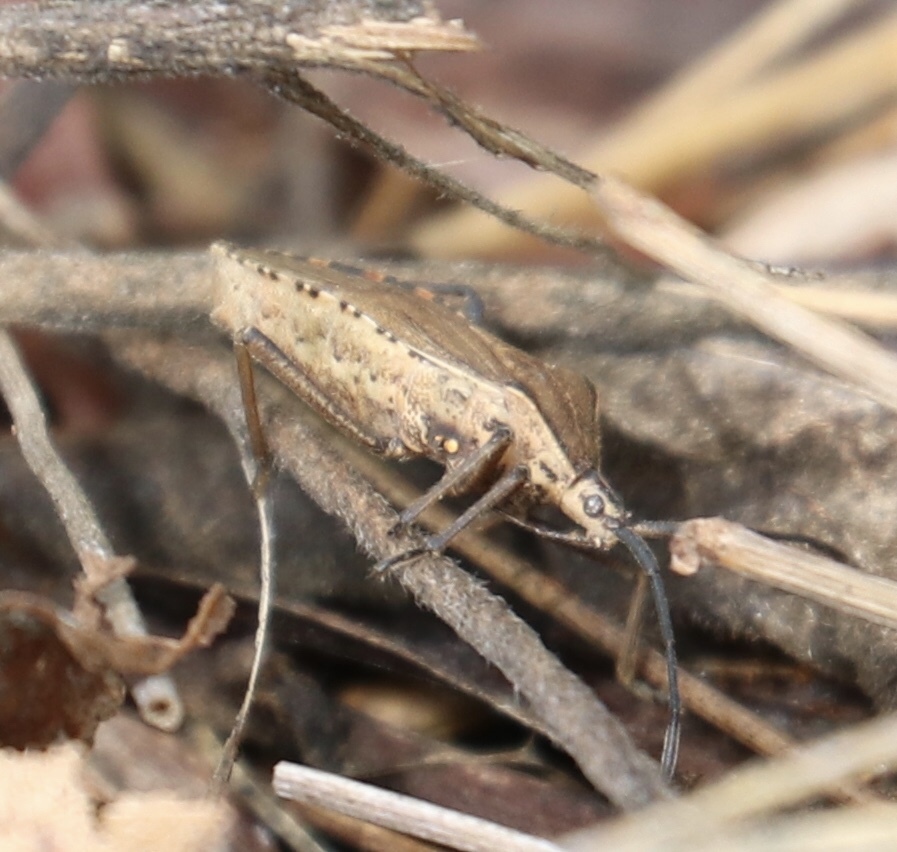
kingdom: Animalia
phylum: Arthropoda
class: Insecta
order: Hemiptera
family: Coreidae
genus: Cimolus
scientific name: Cimolus luteus
